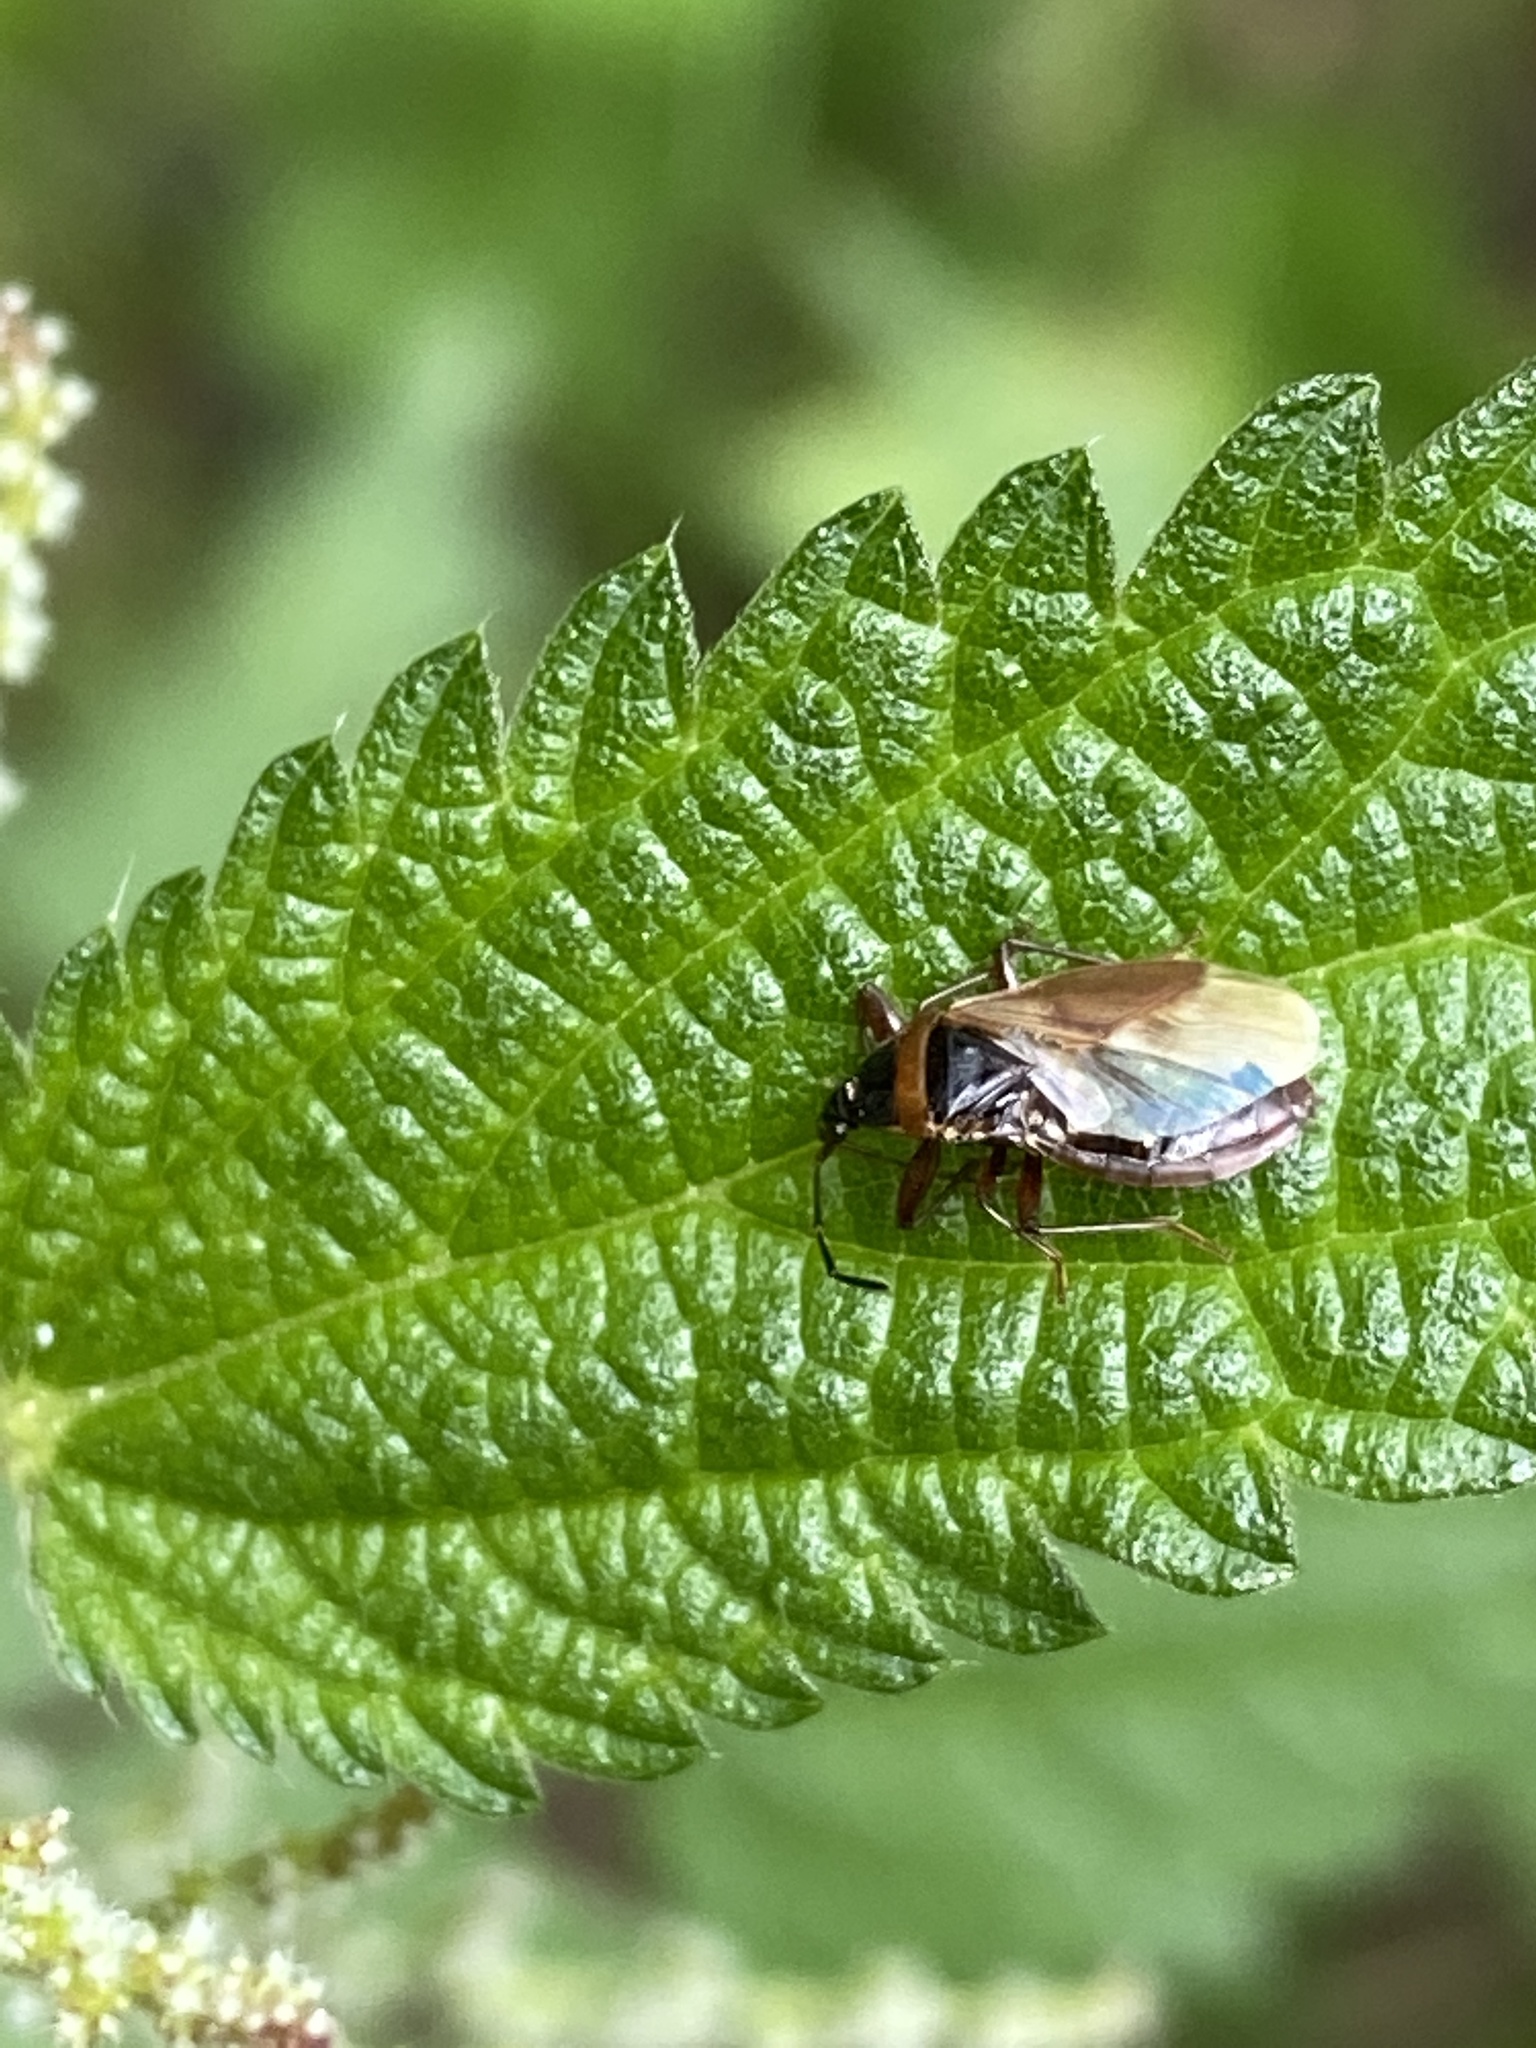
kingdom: Animalia
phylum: Arthropoda
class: Insecta
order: Hemiptera
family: Rhyparochromidae
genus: Gastrodes
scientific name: Gastrodes abietum
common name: Spruce cone bug
